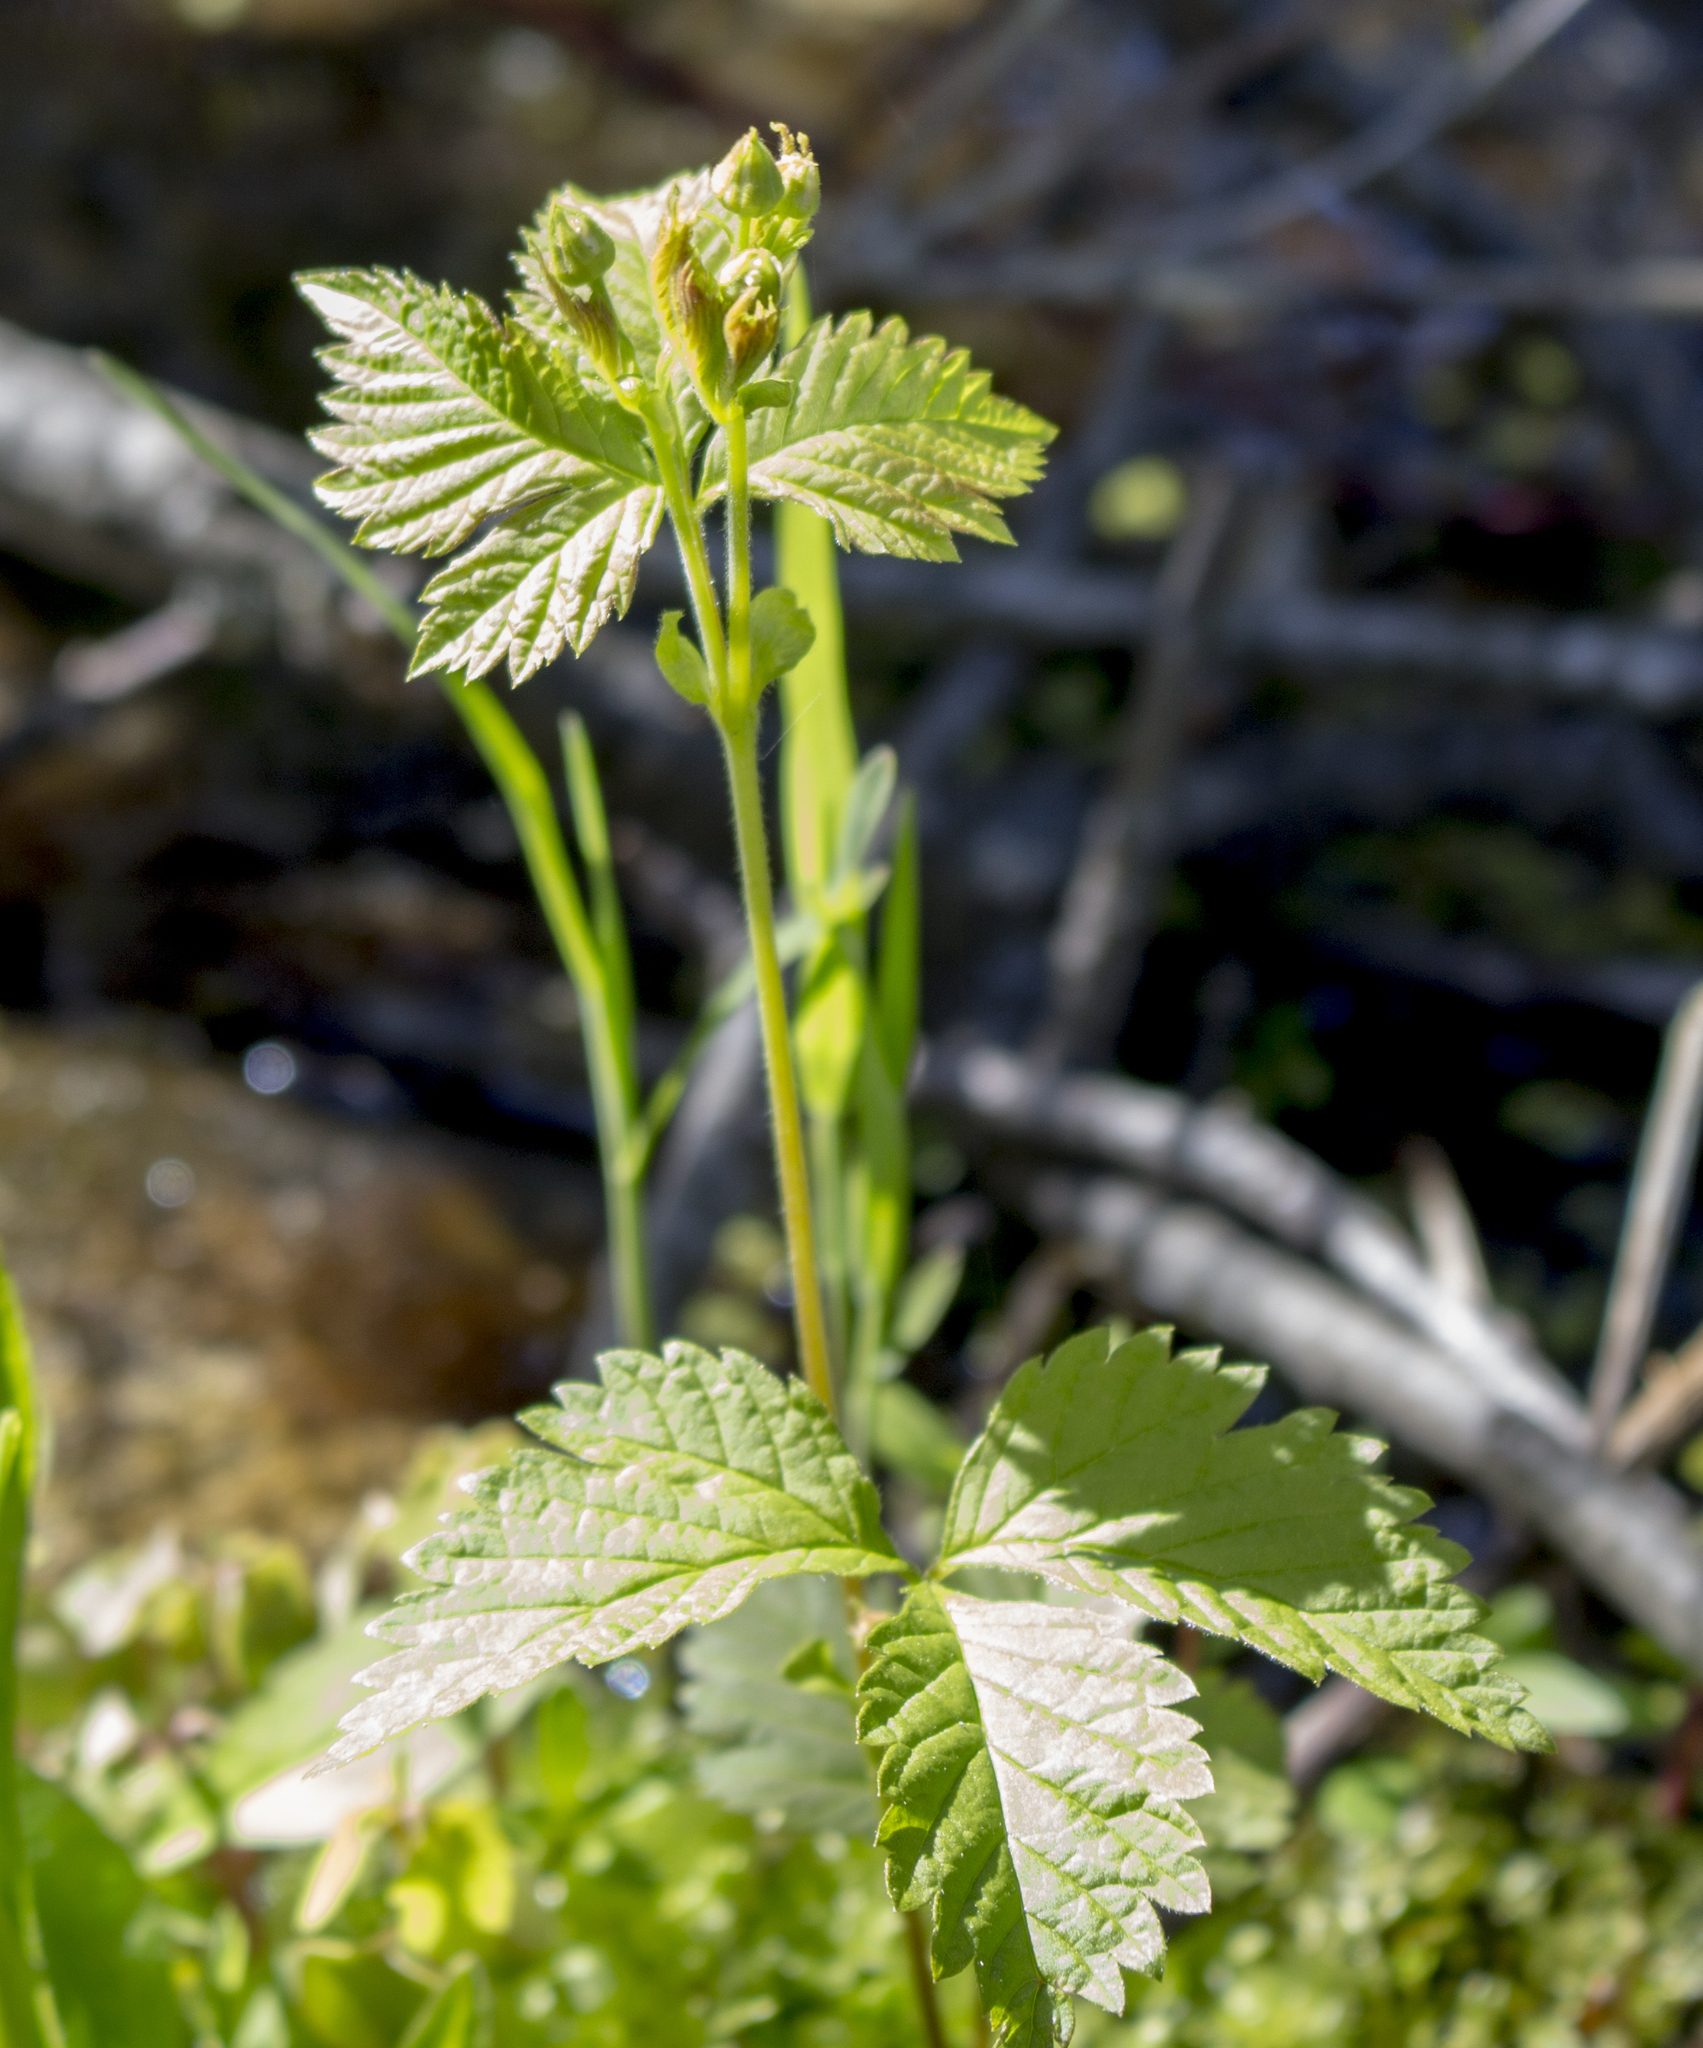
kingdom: Plantae
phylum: Tracheophyta
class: Magnoliopsida
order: Rosales
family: Rosaceae
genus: Rubus
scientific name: Rubus pubescens
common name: Dwarf raspberry
